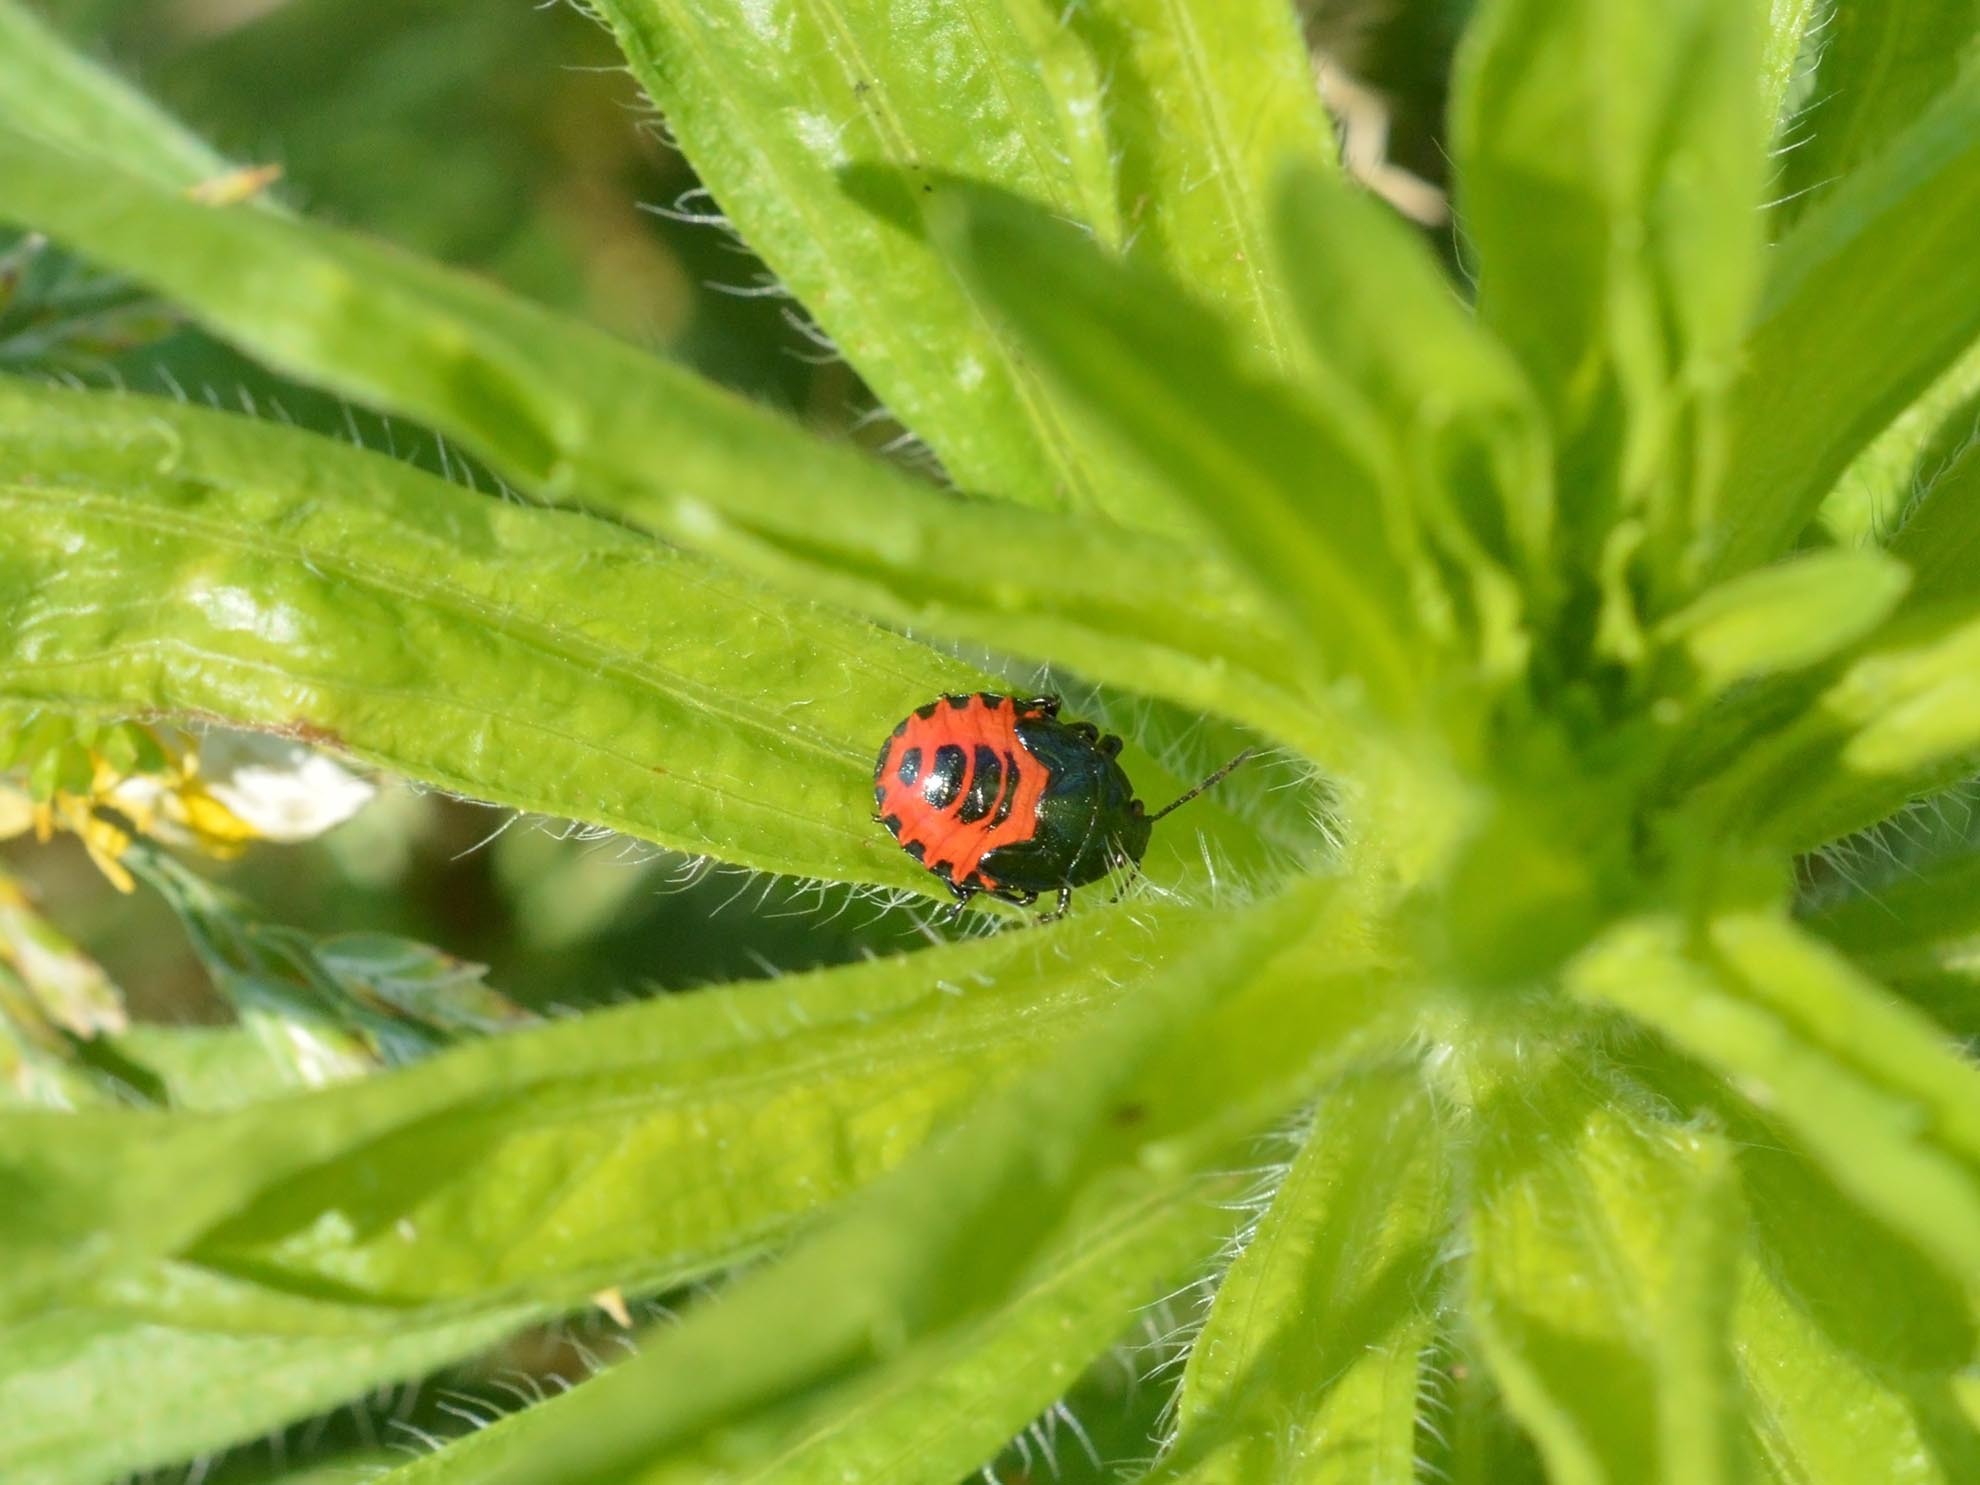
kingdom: Animalia
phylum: Arthropoda
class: Insecta
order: Hemiptera
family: Pentatomidae
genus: Zicrona
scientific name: Zicrona caerulea
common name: Blue shieldbug
